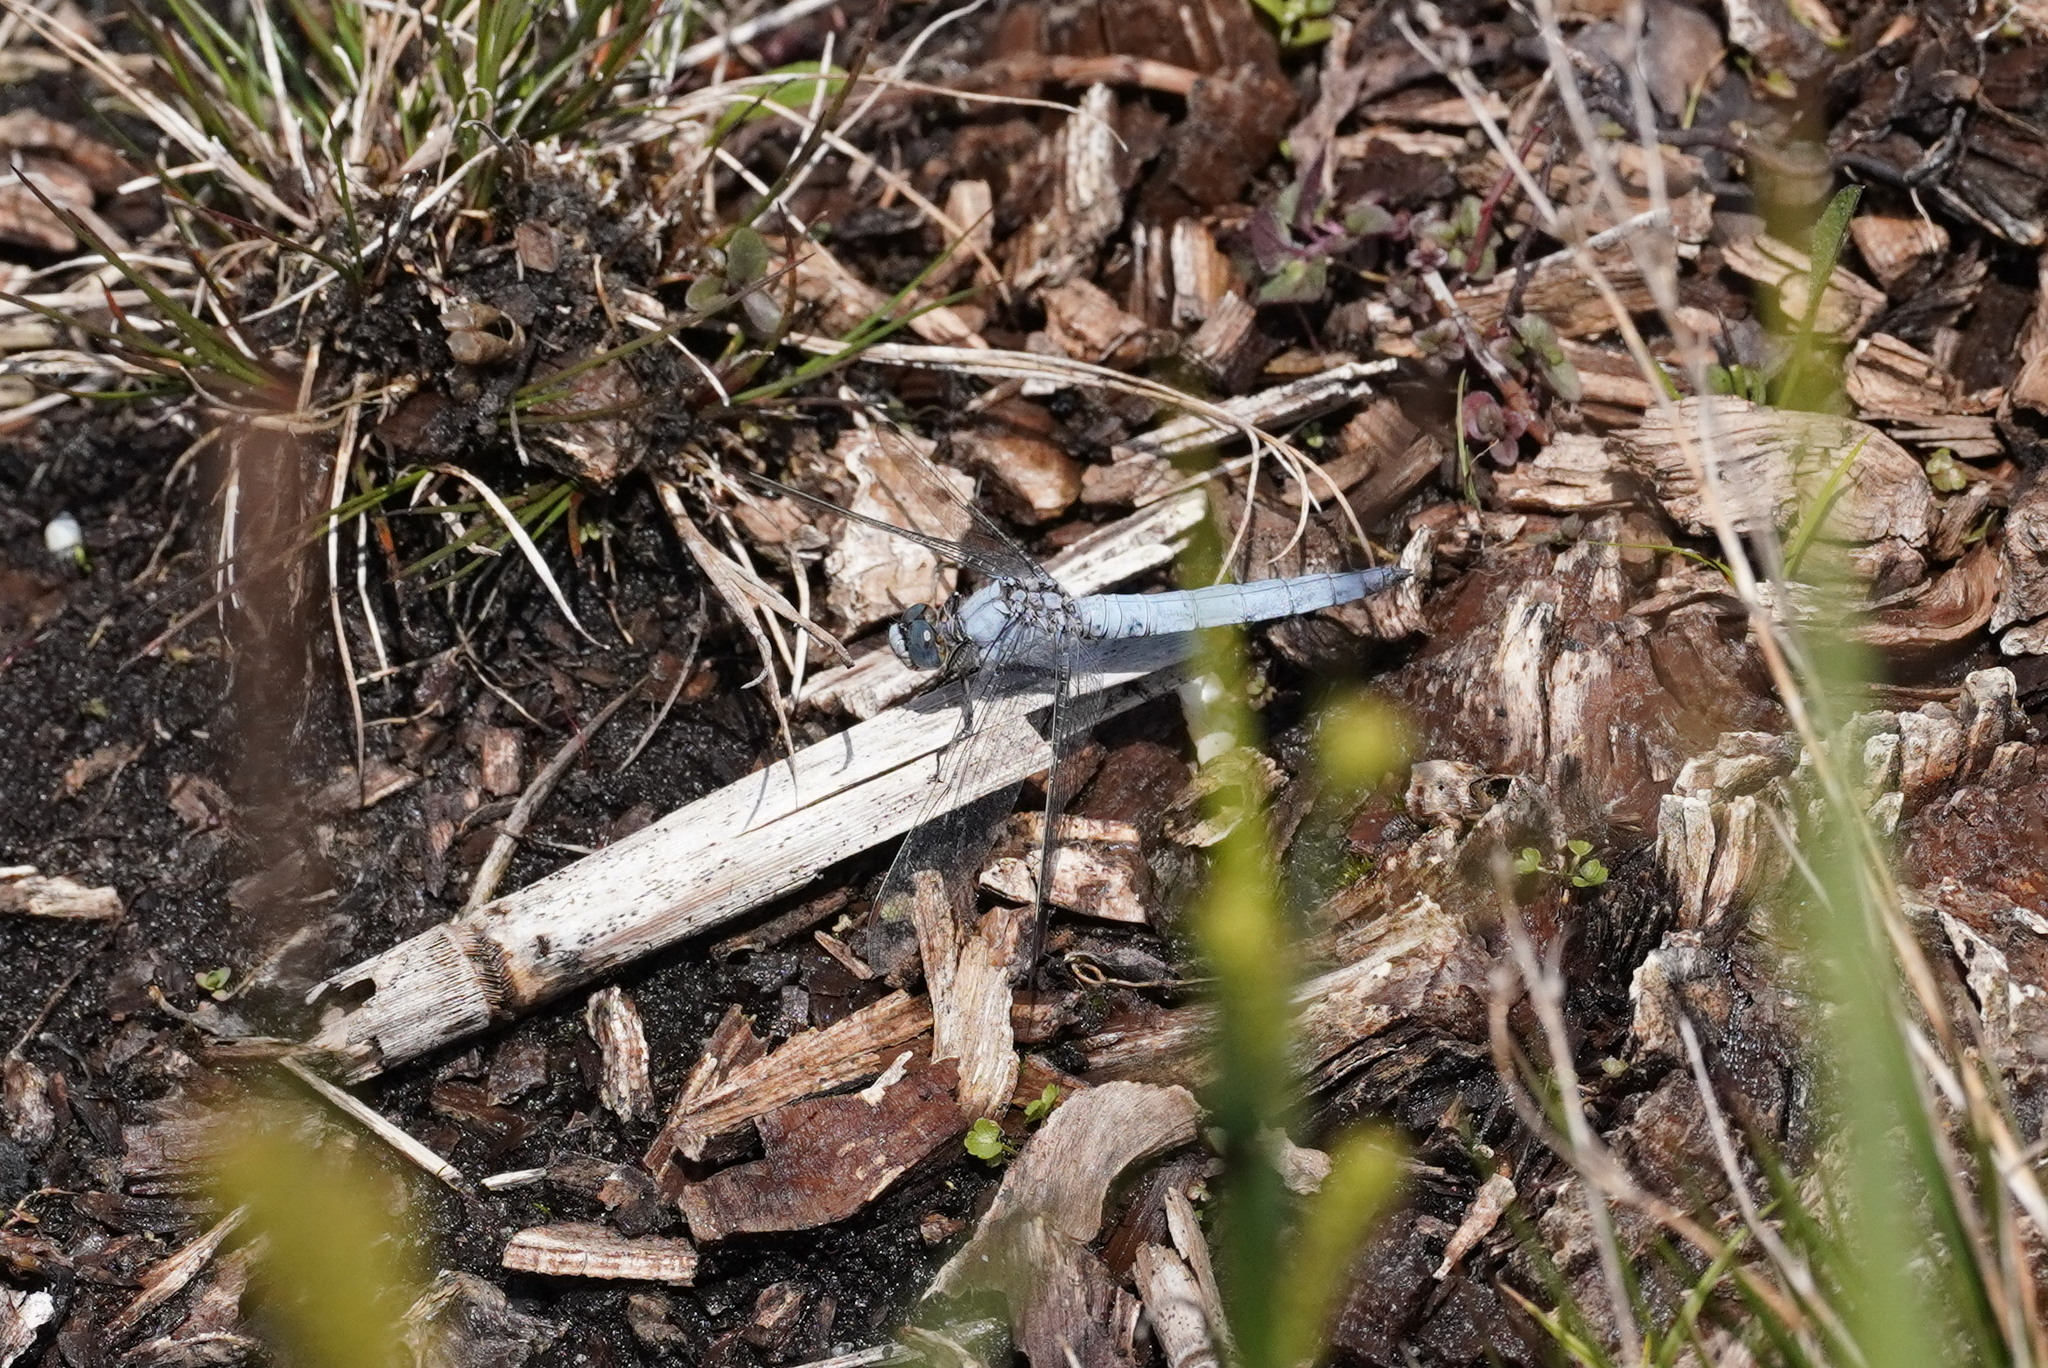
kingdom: Animalia
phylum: Arthropoda
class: Insecta
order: Odonata
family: Libellulidae
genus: Orthetrum
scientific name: Orthetrum brunneum
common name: Southern skimmer
